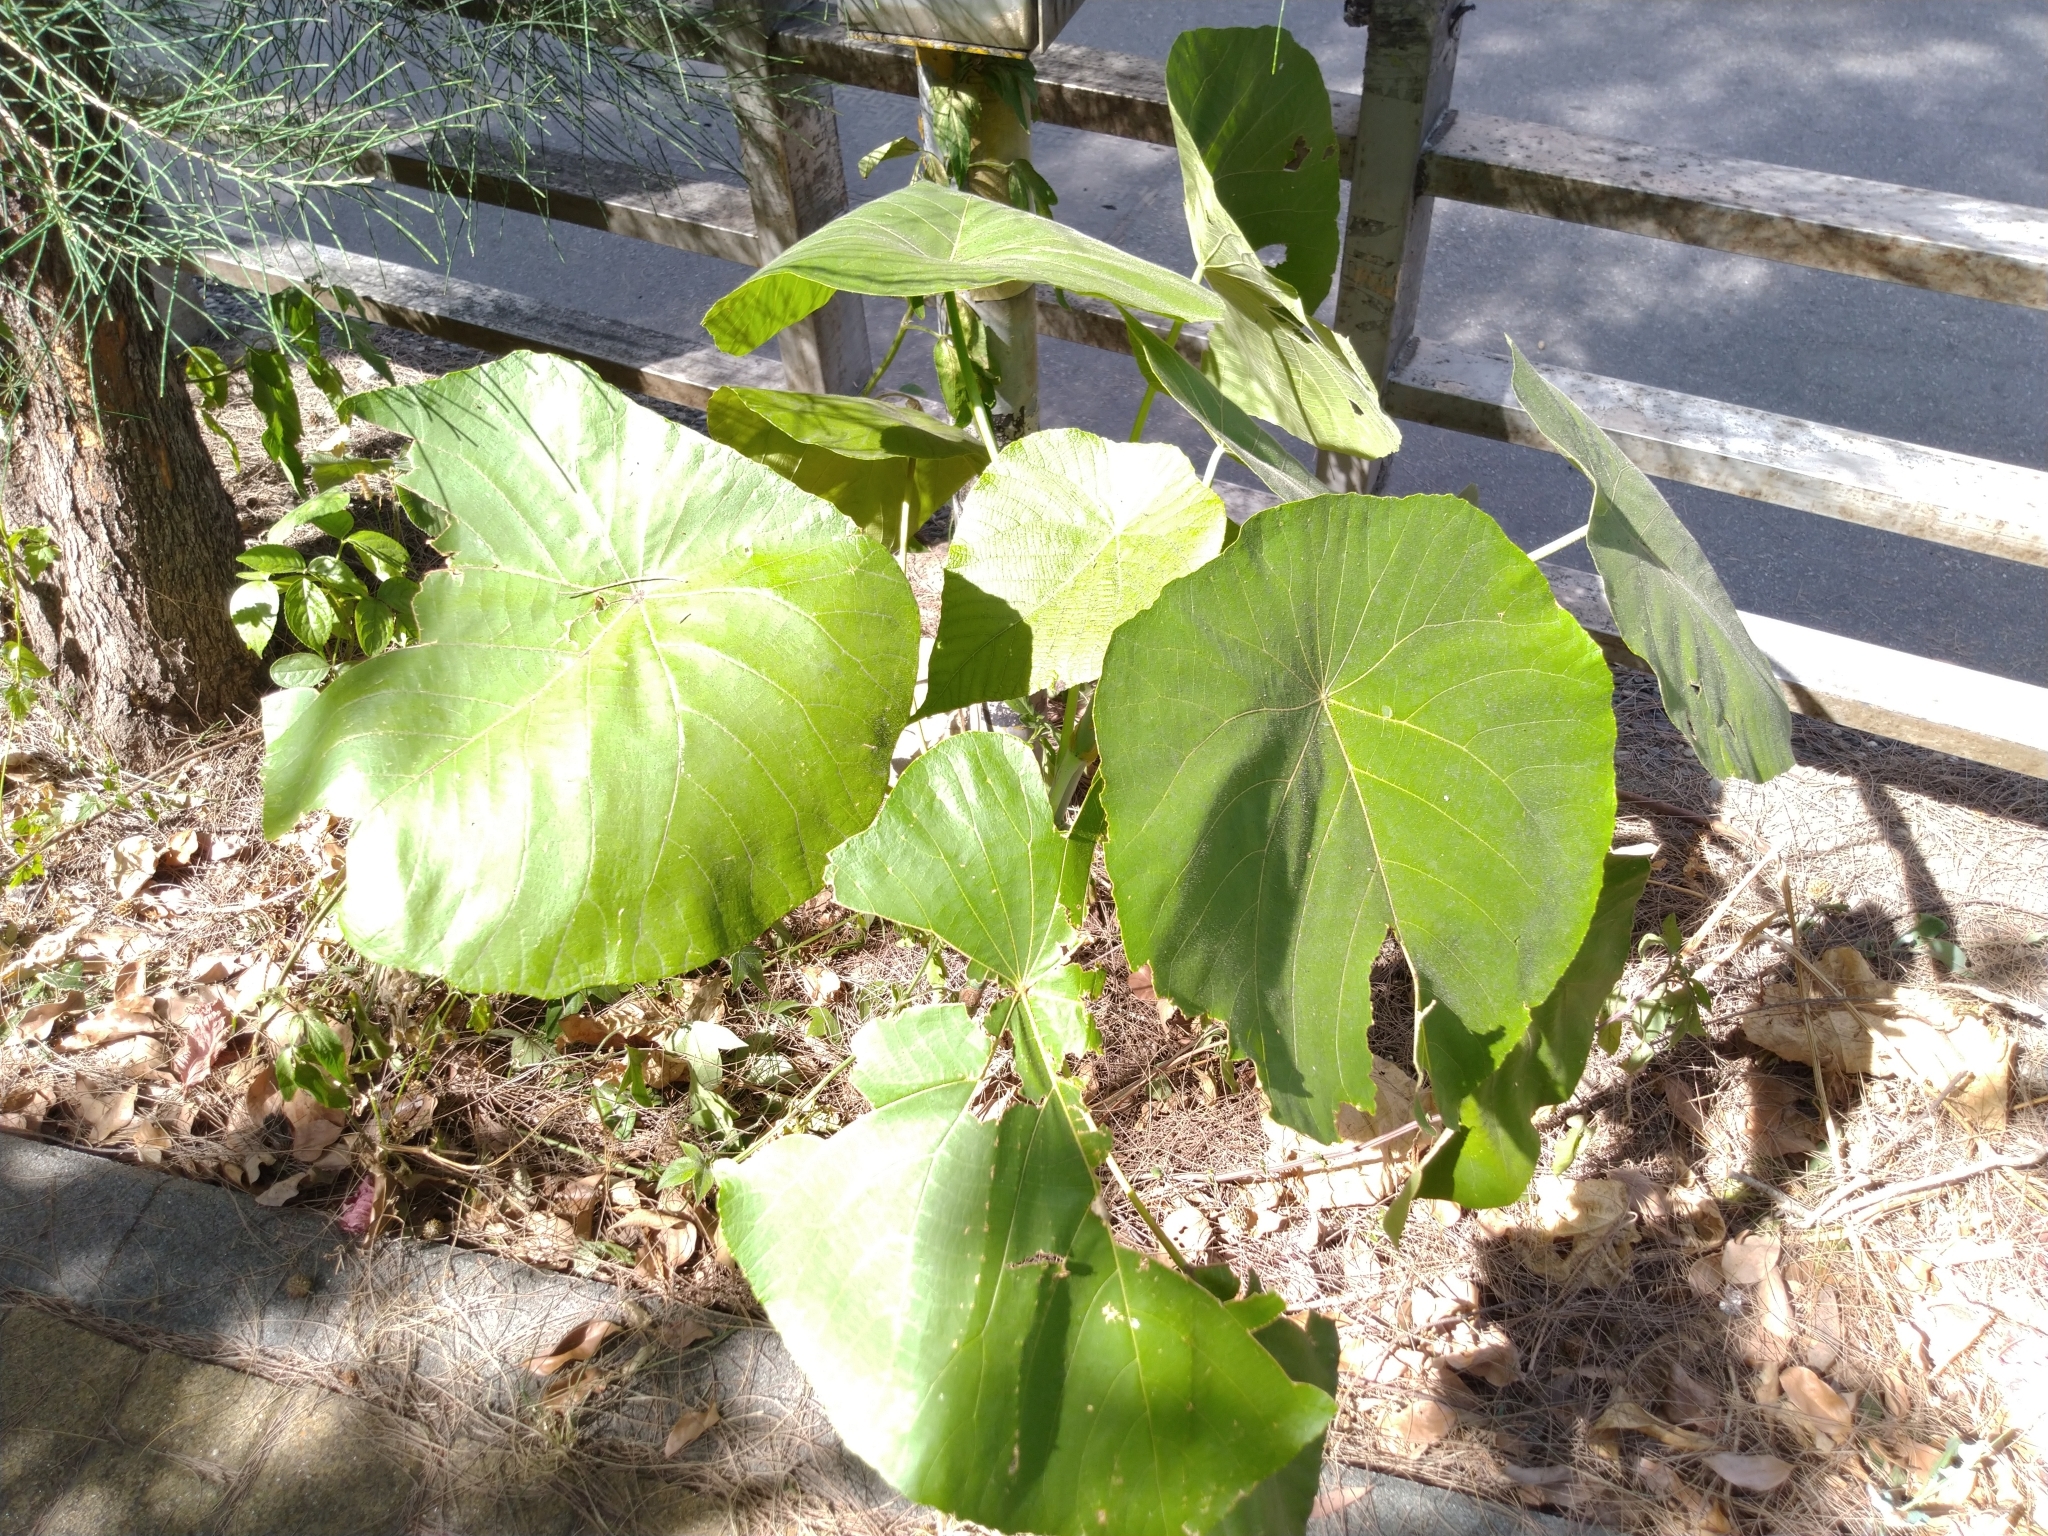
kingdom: Plantae
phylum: Tracheophyta
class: Magnoliopsida
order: Malpighiales
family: Euphorbiaceae
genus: Macaranga
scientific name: Macaranga tanarius
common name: Parasol leaf tree
